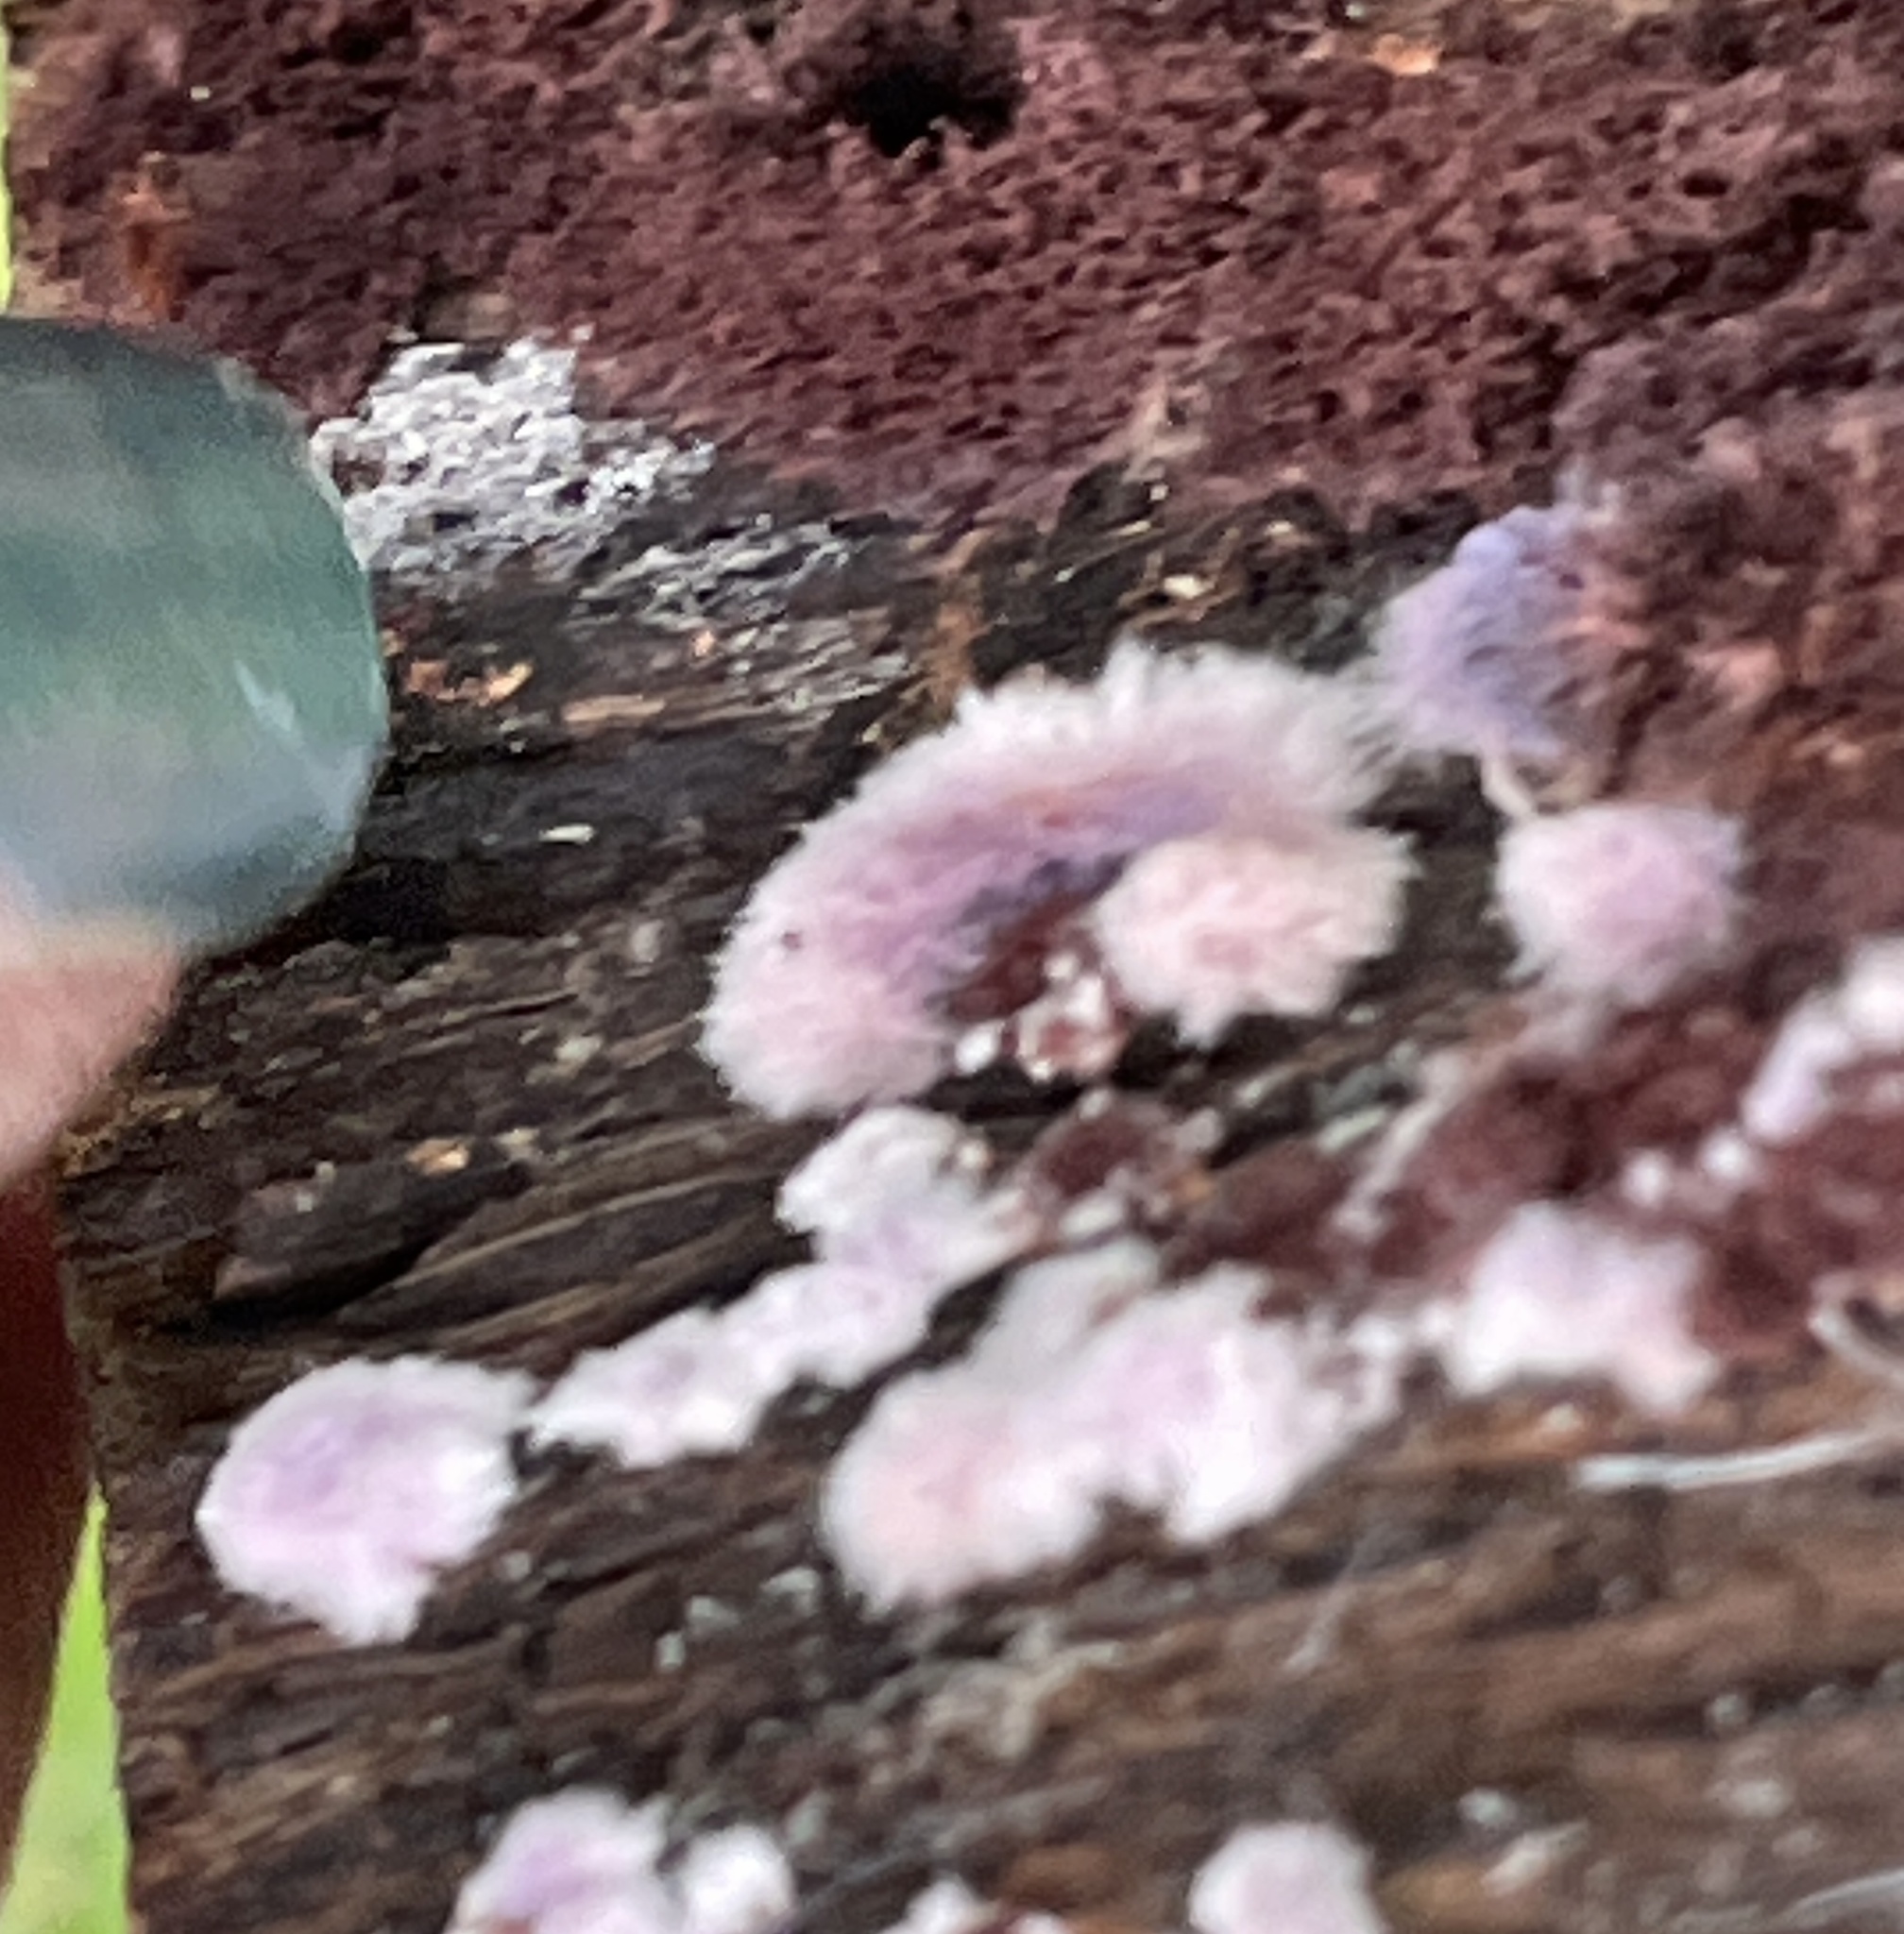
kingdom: Fungi
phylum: Basidiomycota
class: Agaricomycetes
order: Corticiales
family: Punctulariaceae
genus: Punctularia
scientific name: Punctularia atropurpurascens
